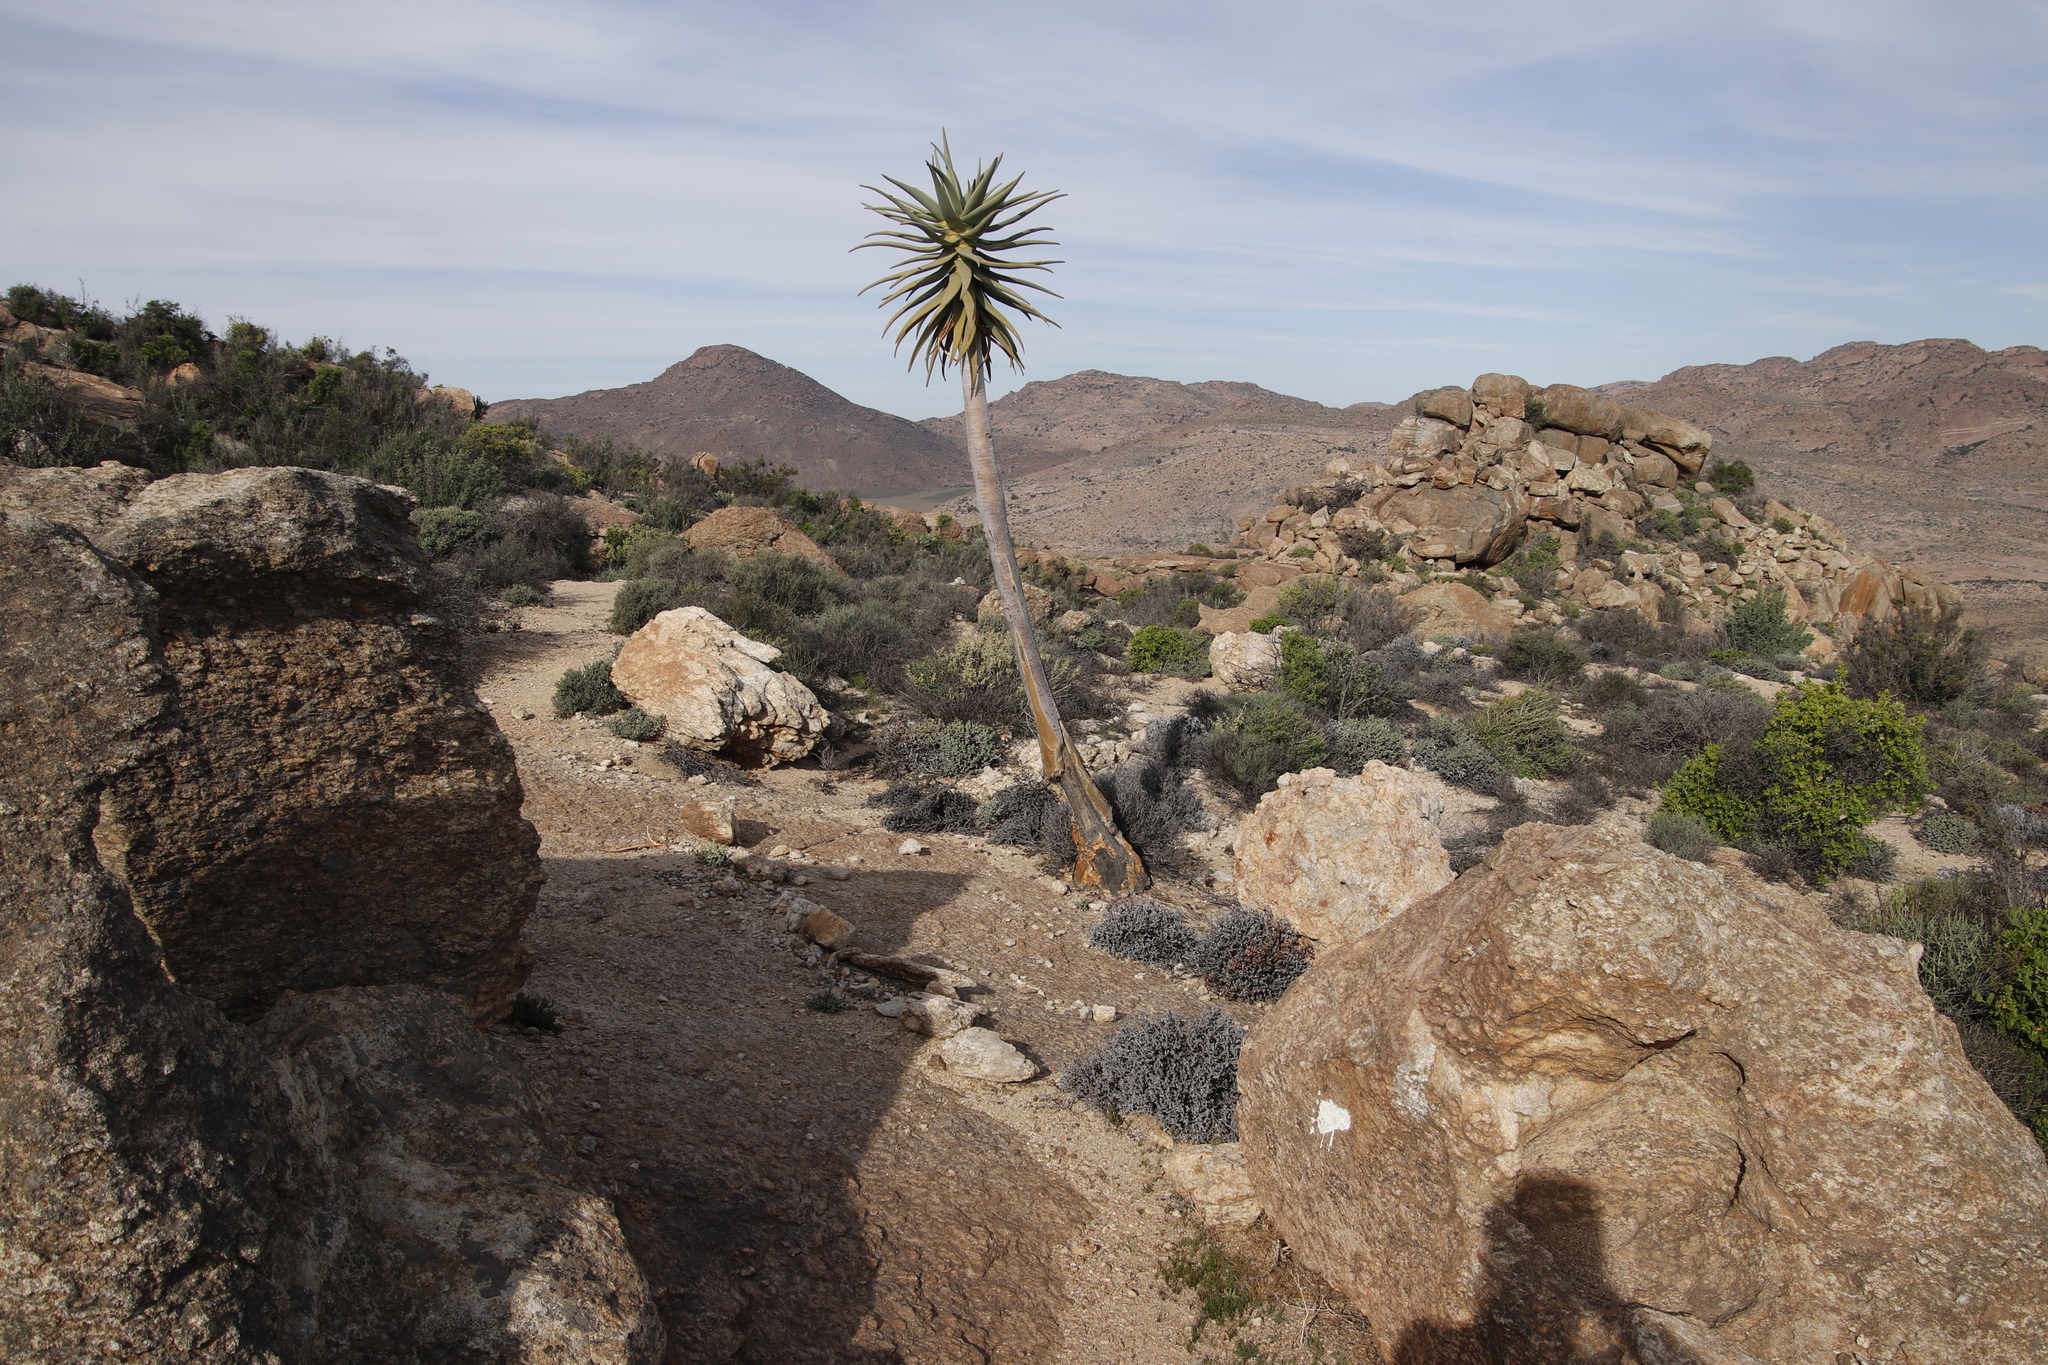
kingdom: Plantae
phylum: Tracheophyta
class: Liliopsida
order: Asparagales
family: Asphodelaceae
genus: Aloidendron
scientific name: Aloidendron dichotomum
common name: Quiver tree
